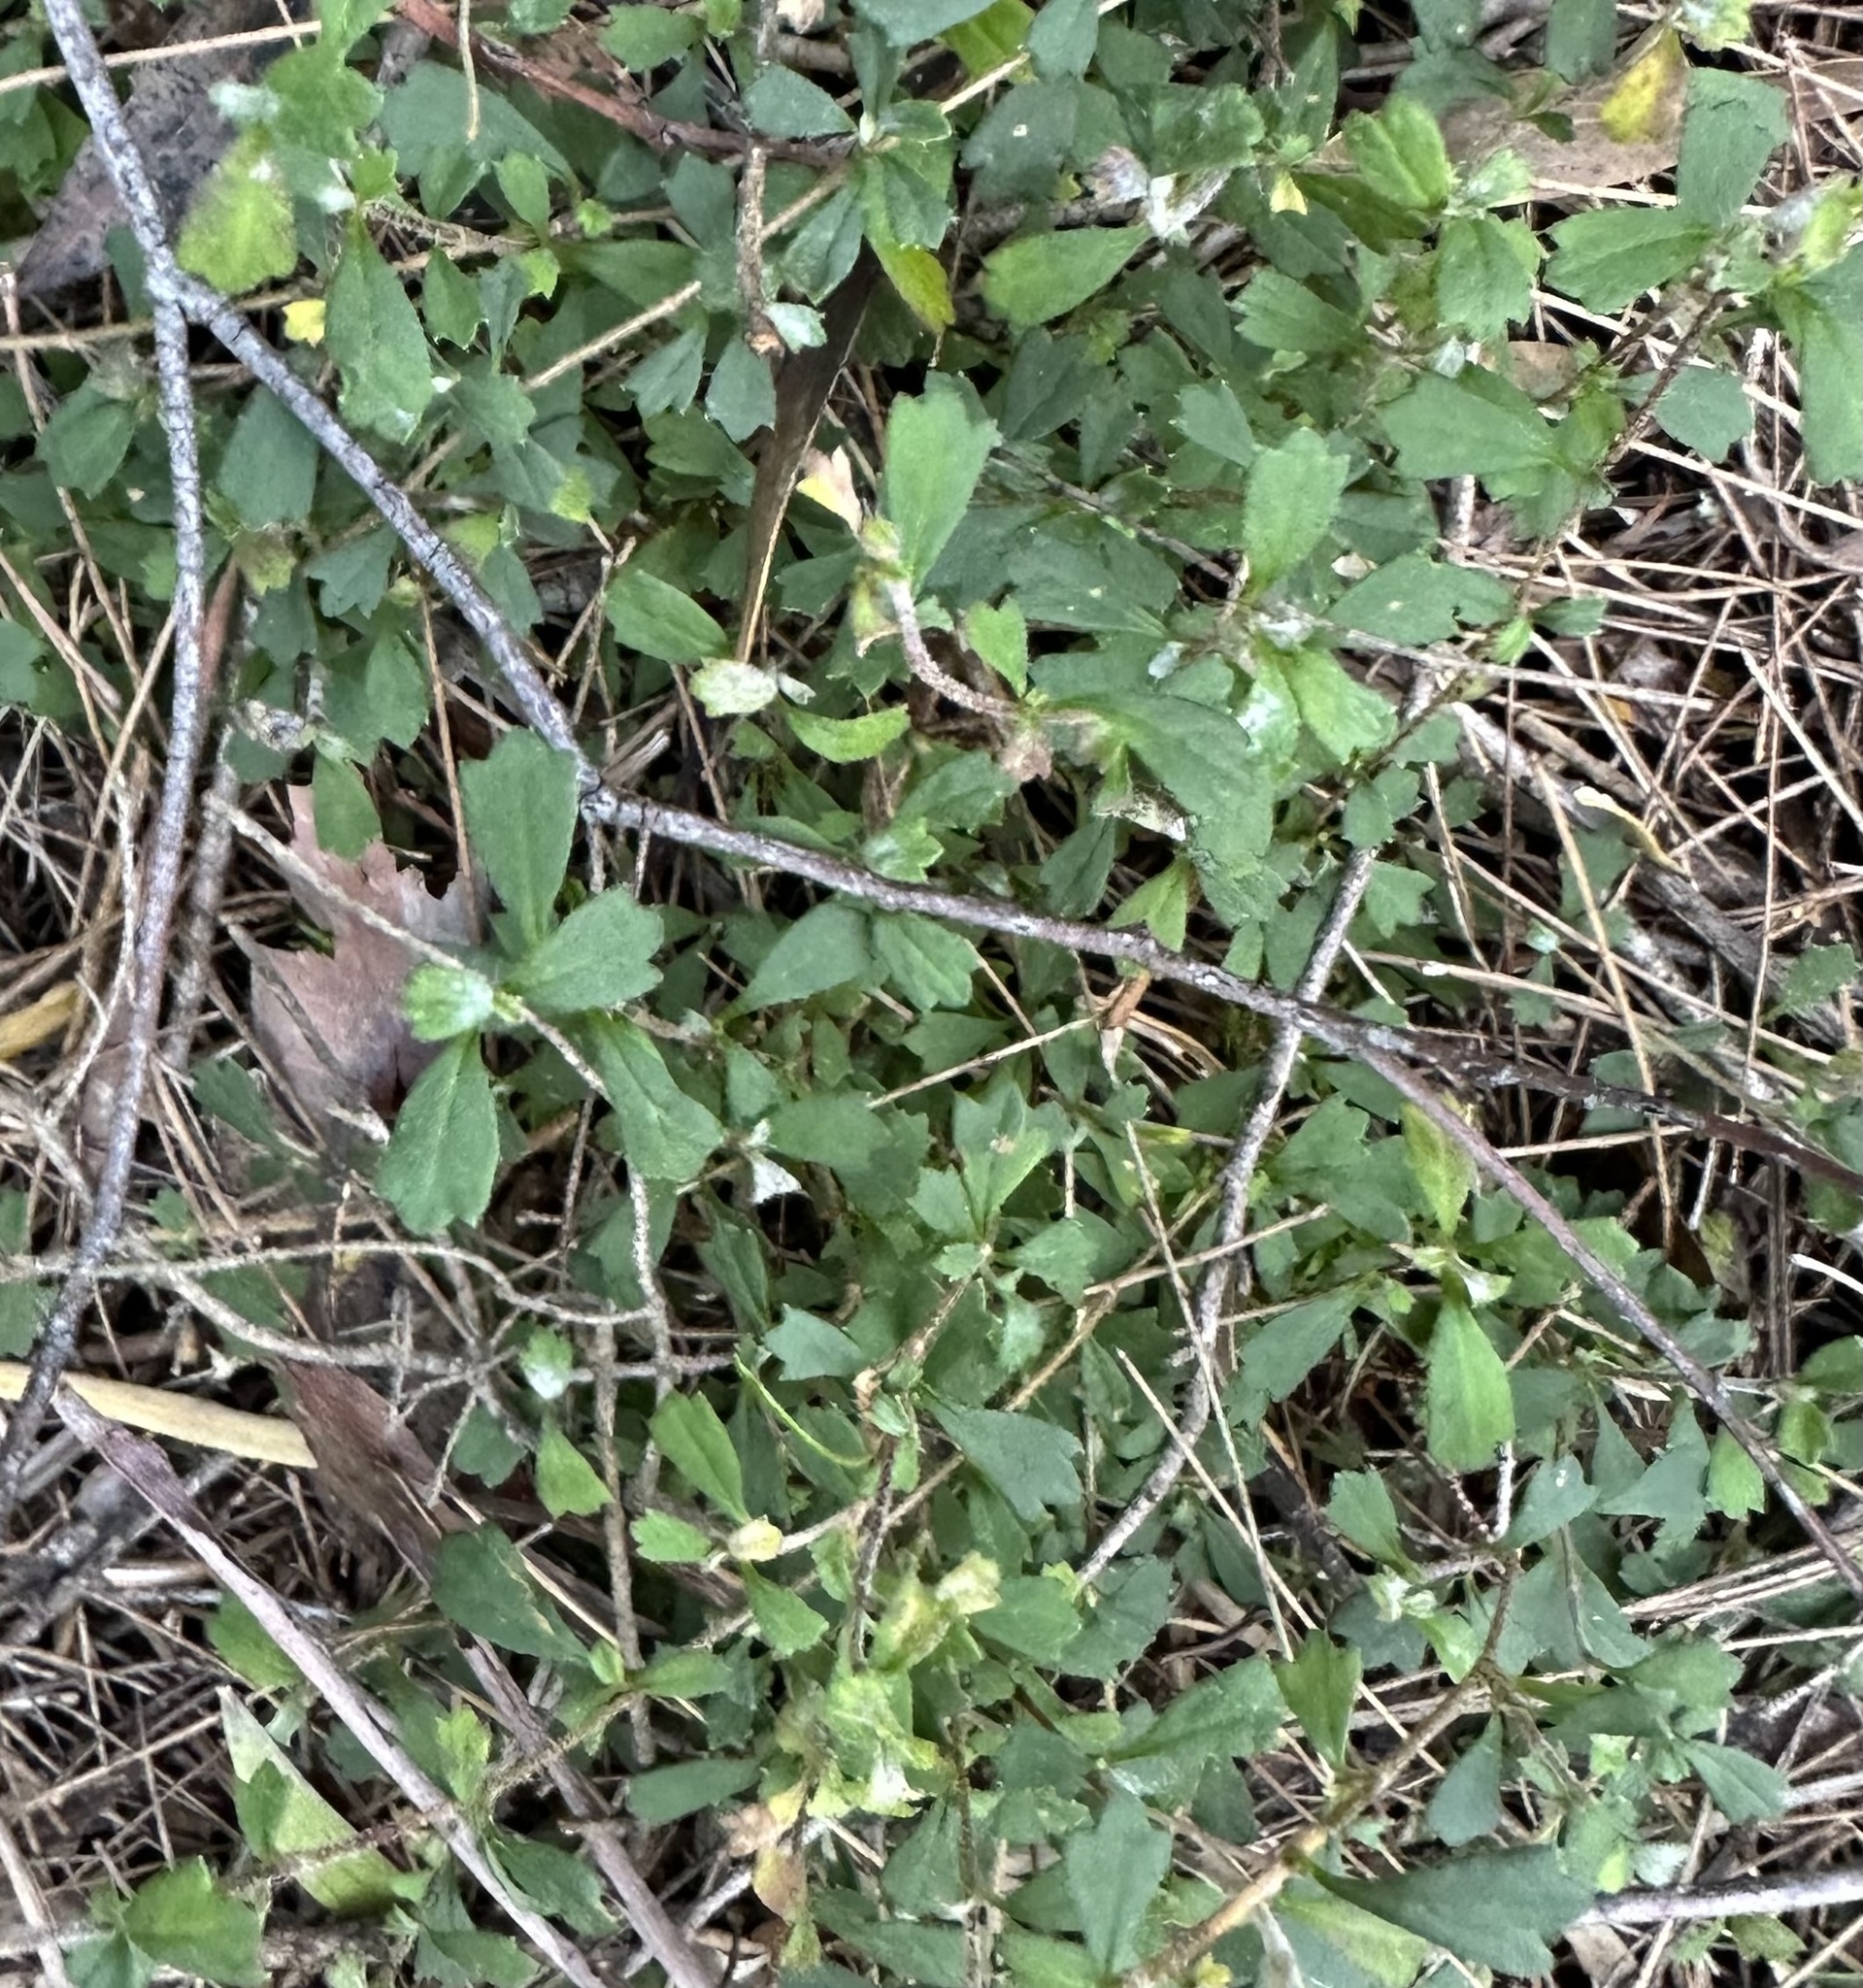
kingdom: Plantae
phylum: Tracheophyta
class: Magnoliopsida
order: Apiales
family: Apiaceae
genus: Xanthosia
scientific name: Xanthosia tridentata
